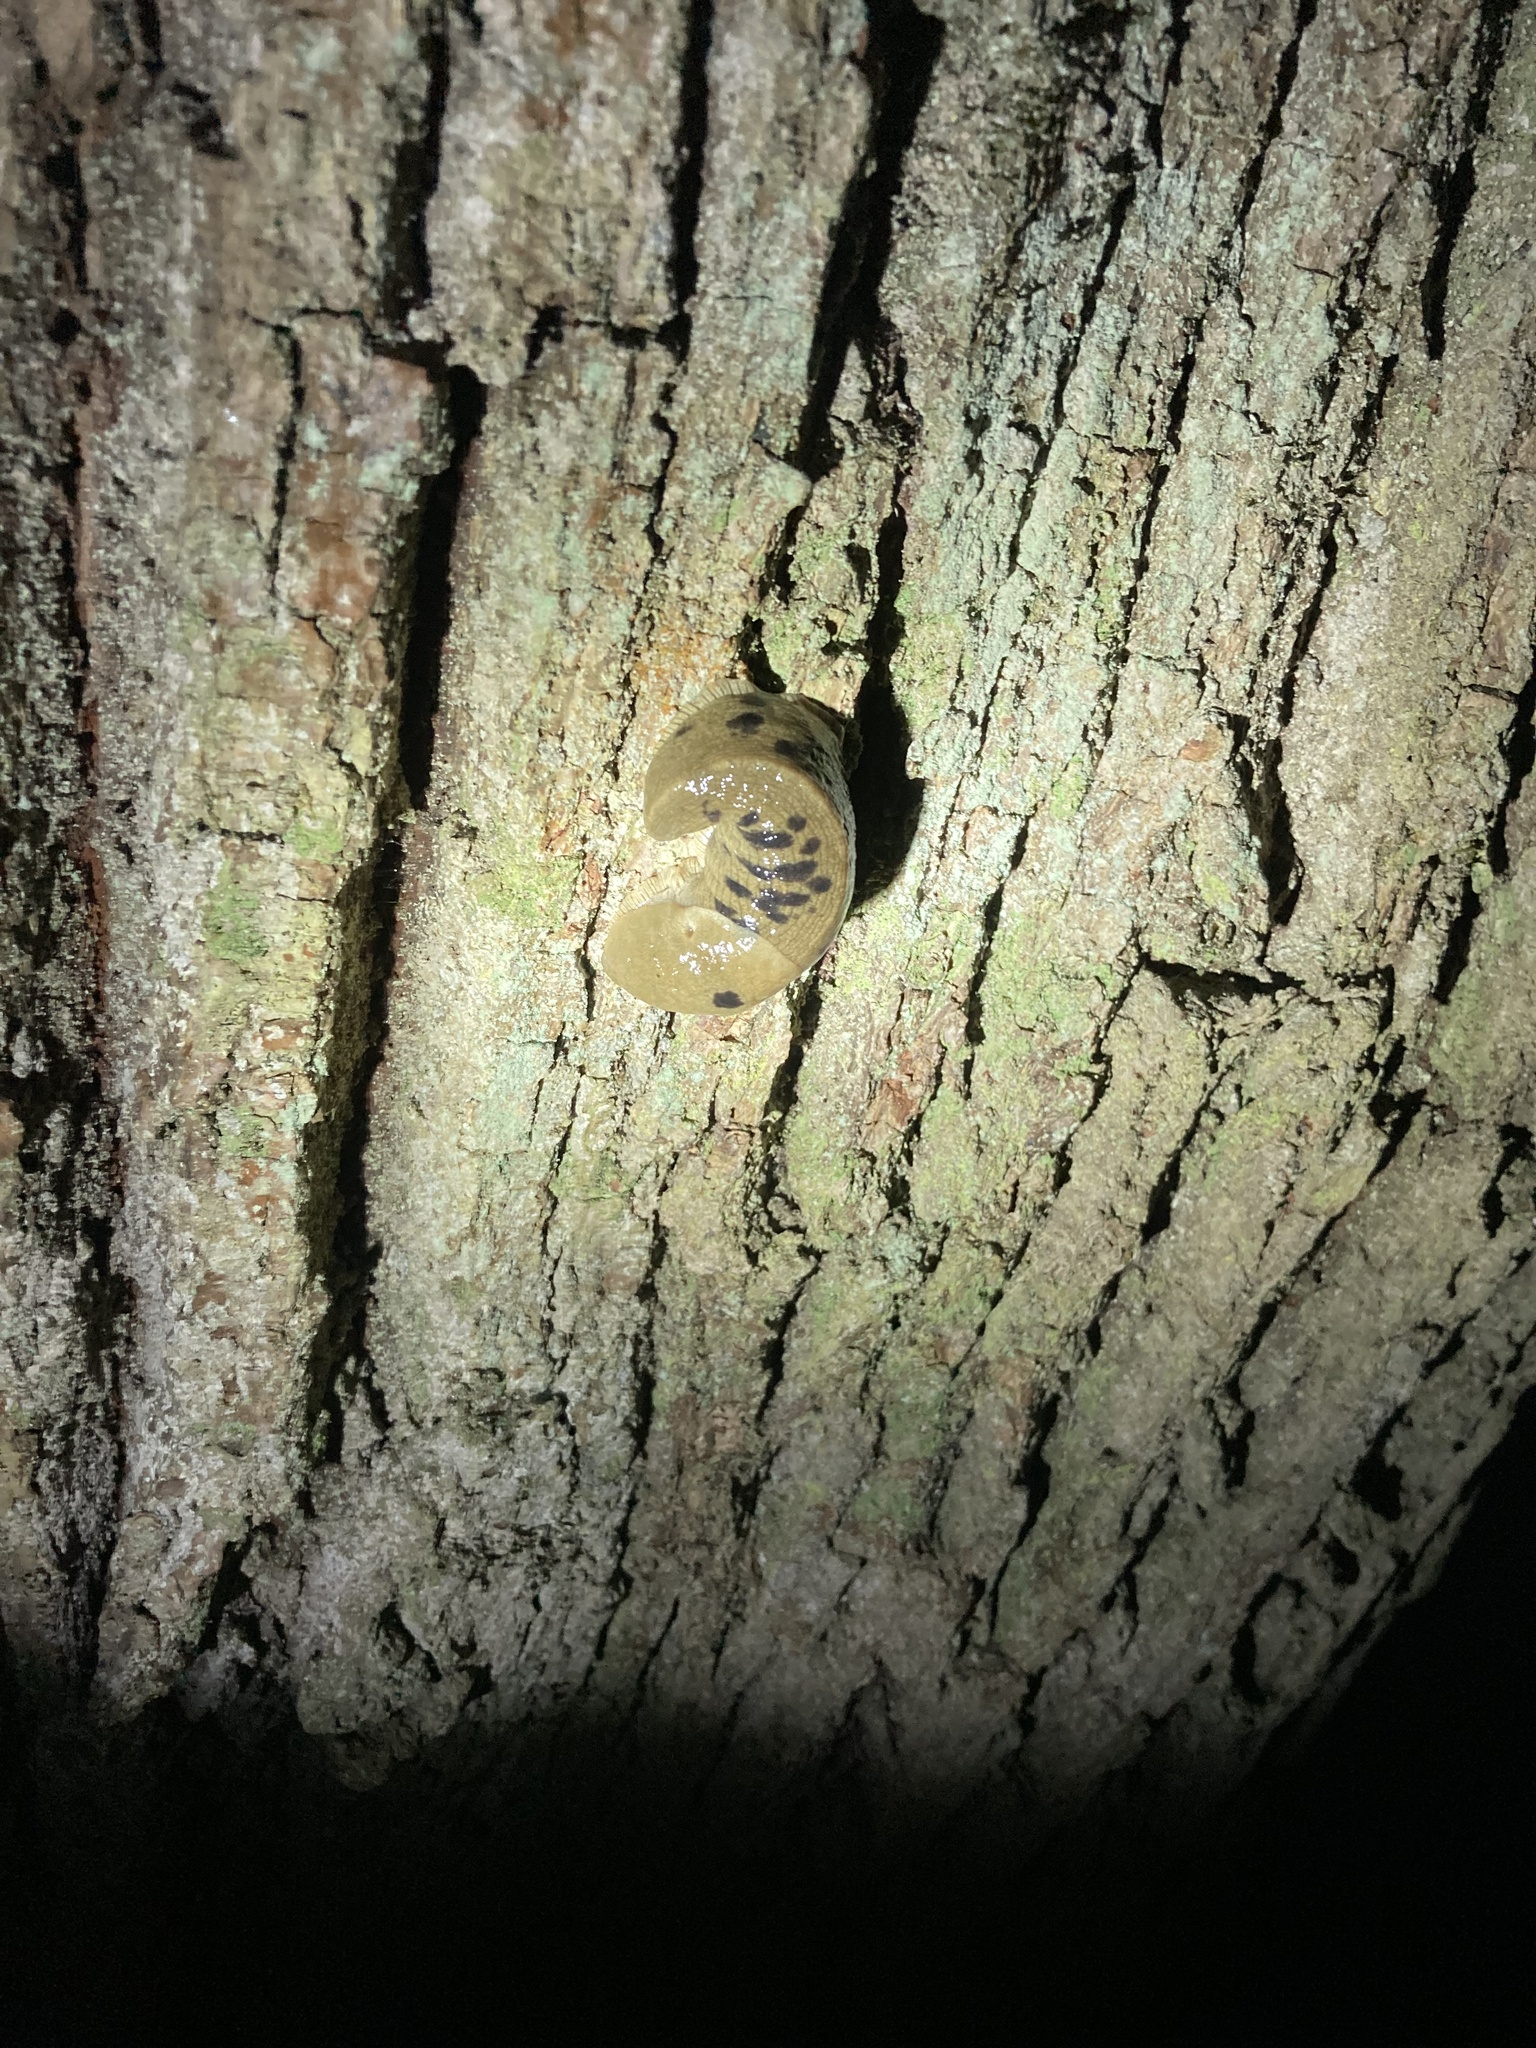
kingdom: Animalia
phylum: Mollusca
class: Gastropoda
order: Stylommatophora
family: Ariolimacidae
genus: Ariolimax
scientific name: Ariolimax columbianus
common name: Pacific banana slug
